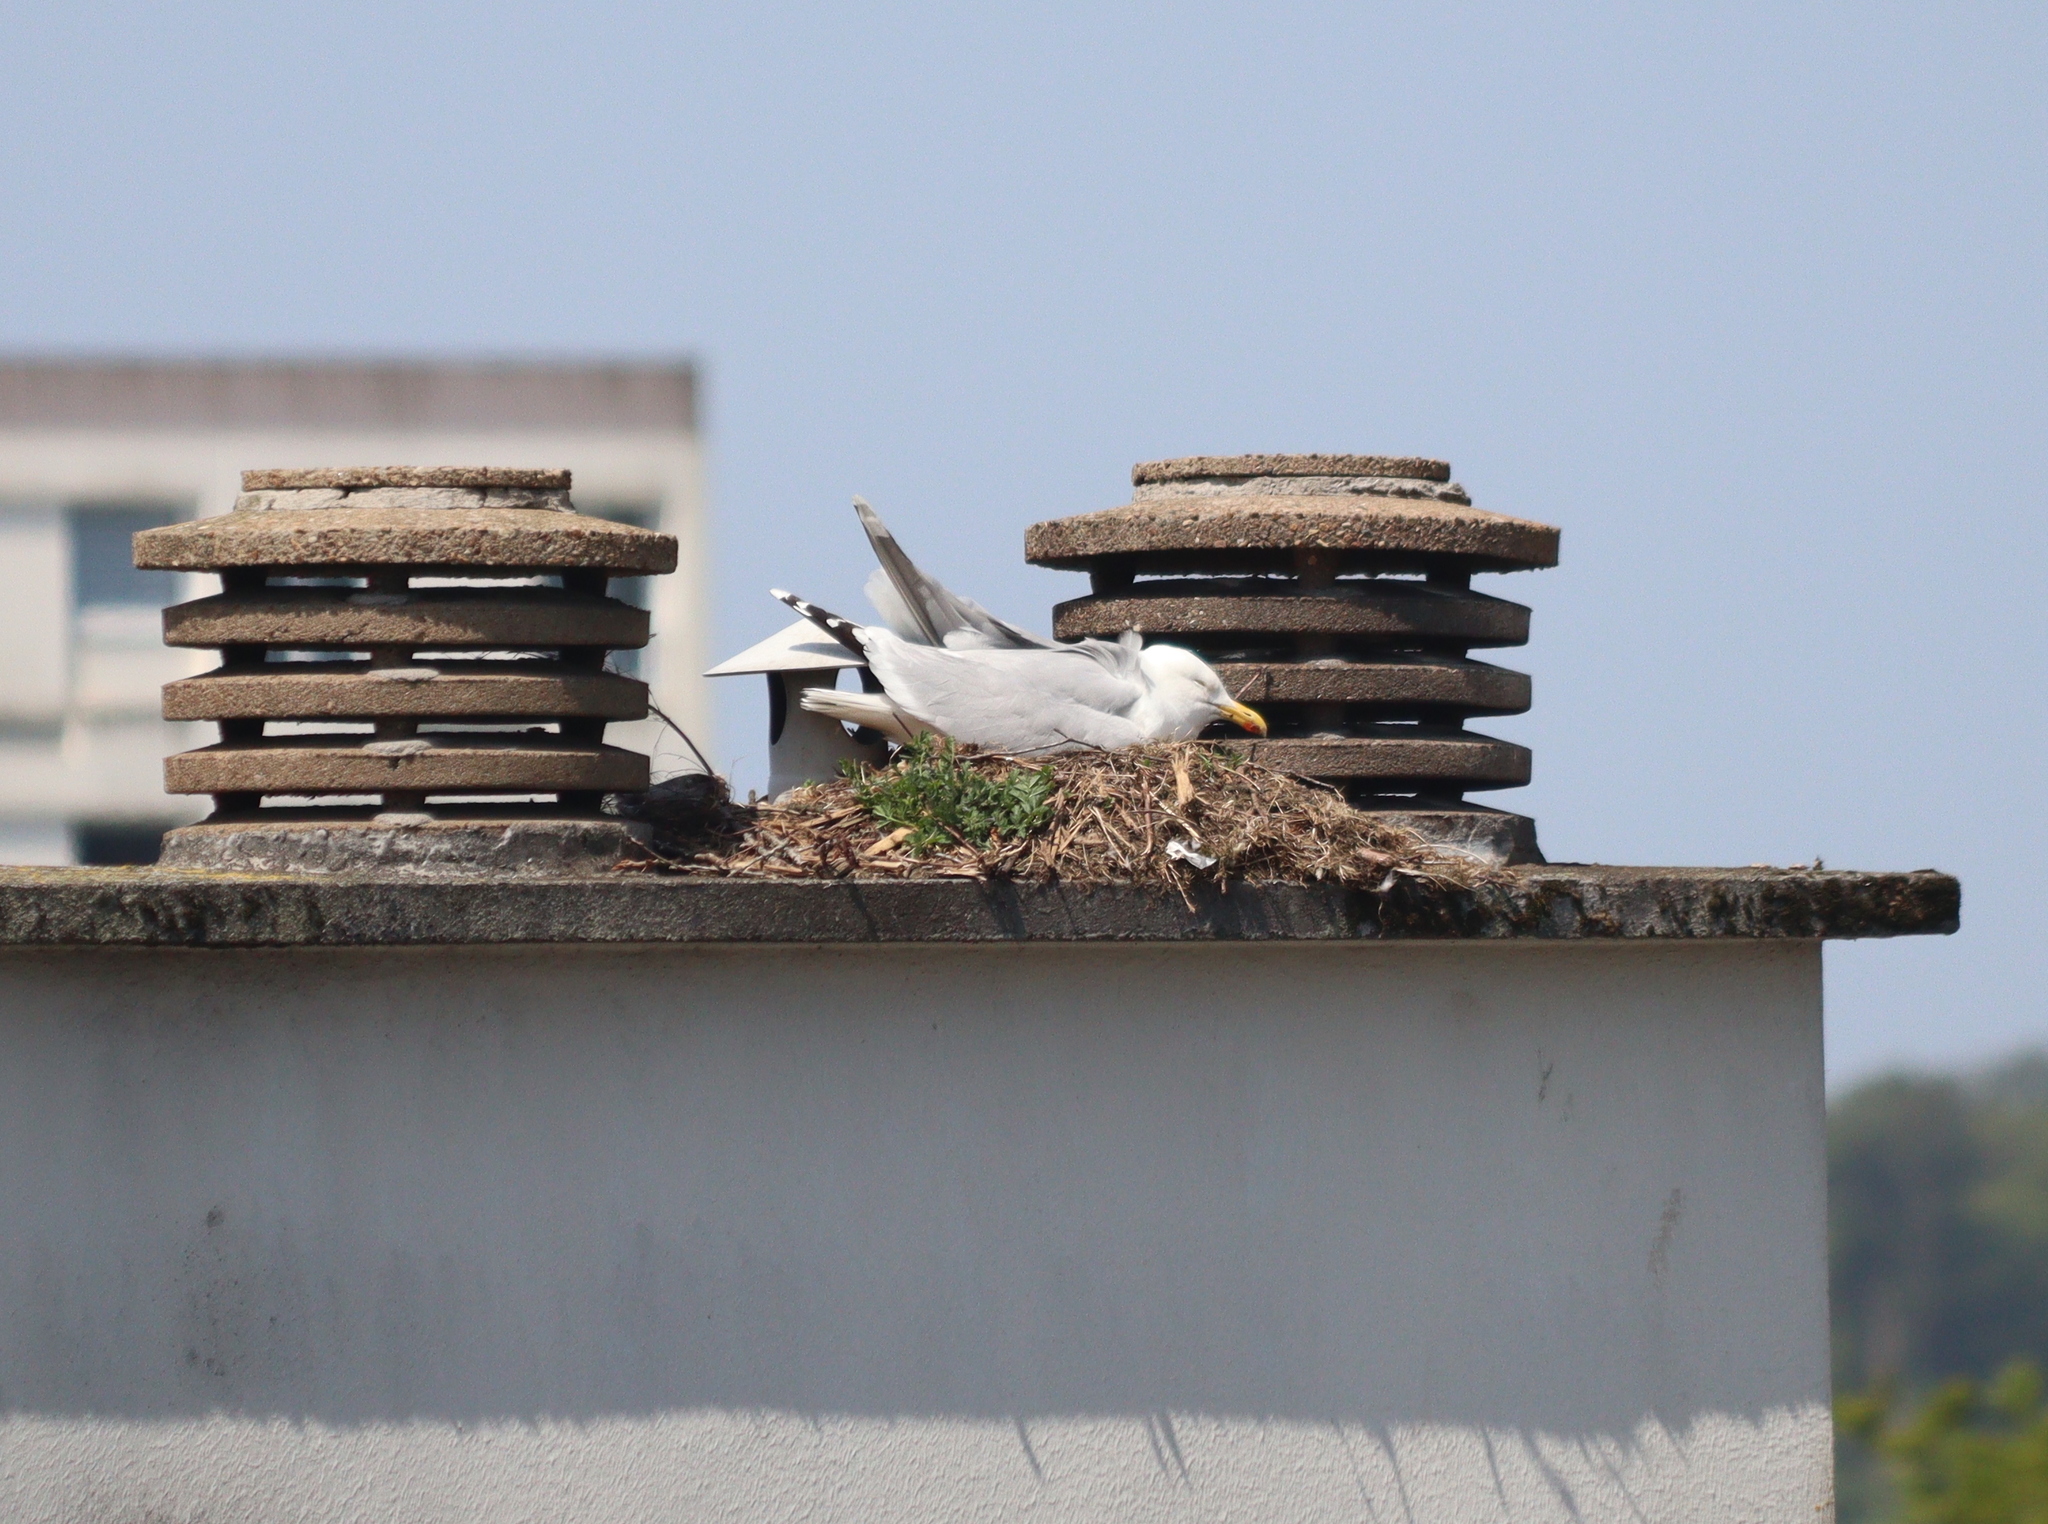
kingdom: Animalia
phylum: Chordata
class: Aves
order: Charadriiformes
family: Laridae
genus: Larus
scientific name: Larus argentatus
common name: Herring gull
